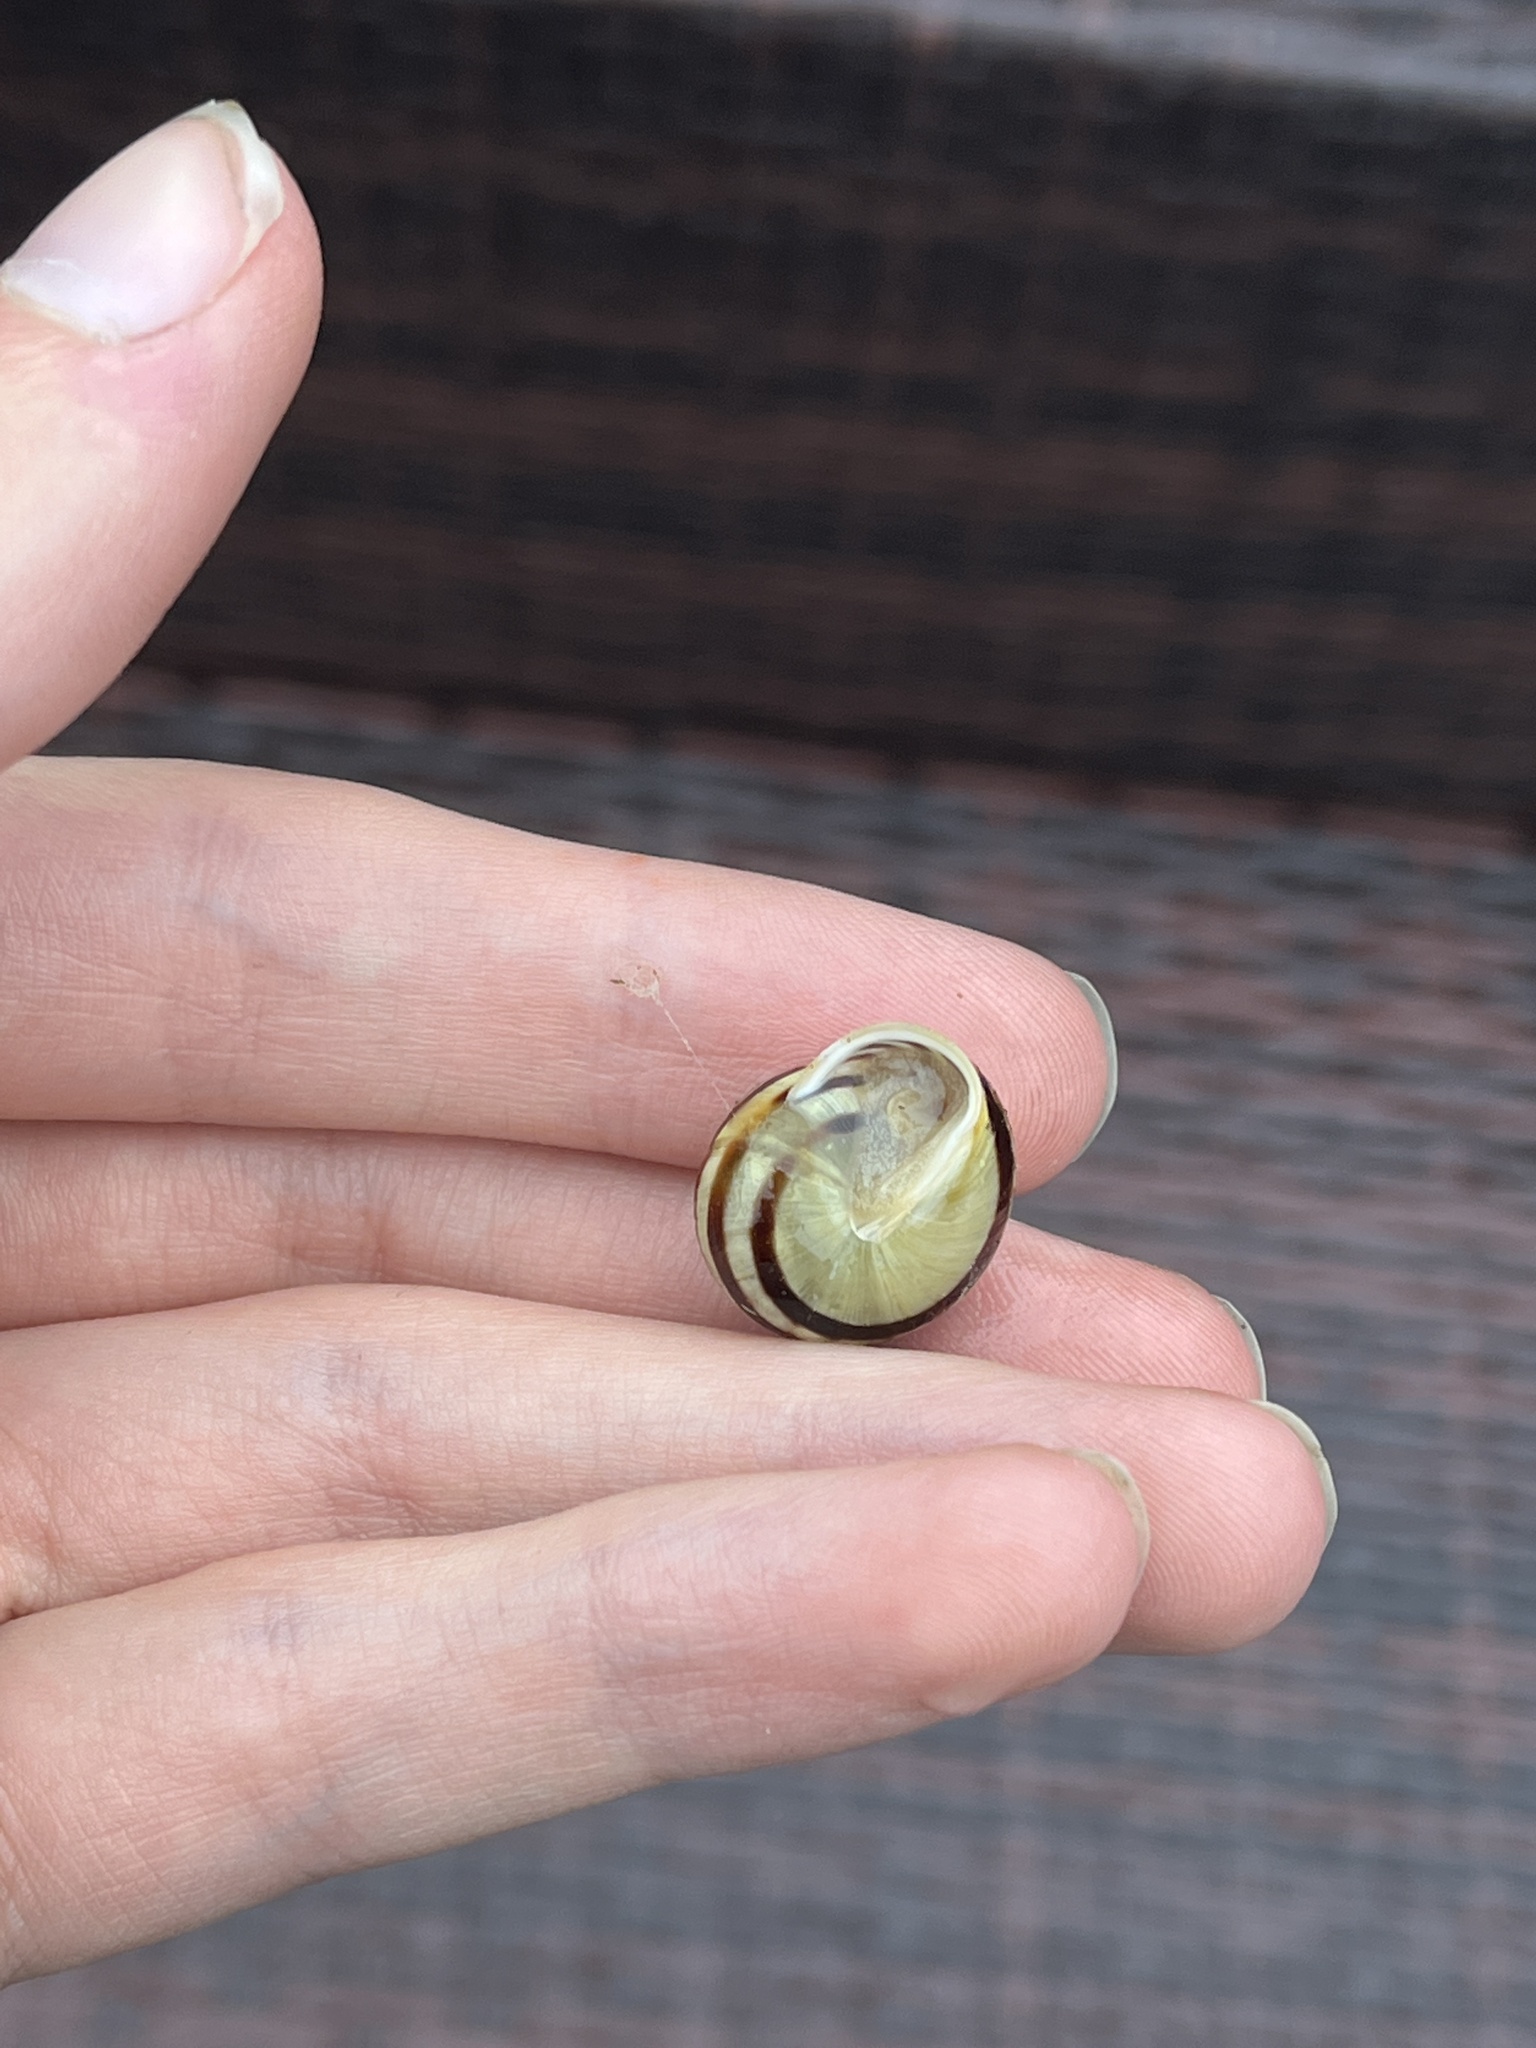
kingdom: Animalia
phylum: Mollusca
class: Gastropoda
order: Stylommatophora
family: Helicidae
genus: Cepaea
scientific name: Cepaea hortensis
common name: White-lip gardensnail
